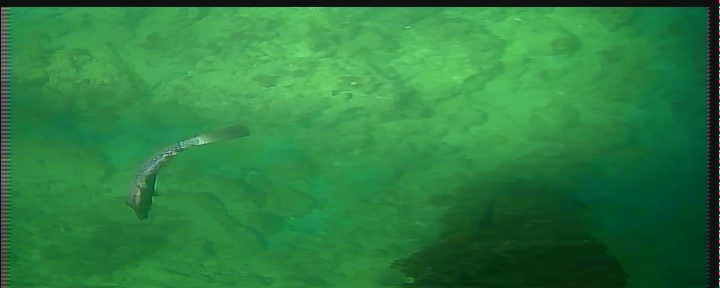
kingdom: Animalia
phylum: Chordata
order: Tetraodontiformes
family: Monacanthidae
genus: Aluterus
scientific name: Aluterus scriptus
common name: Scribbled leatherjacket filefish
